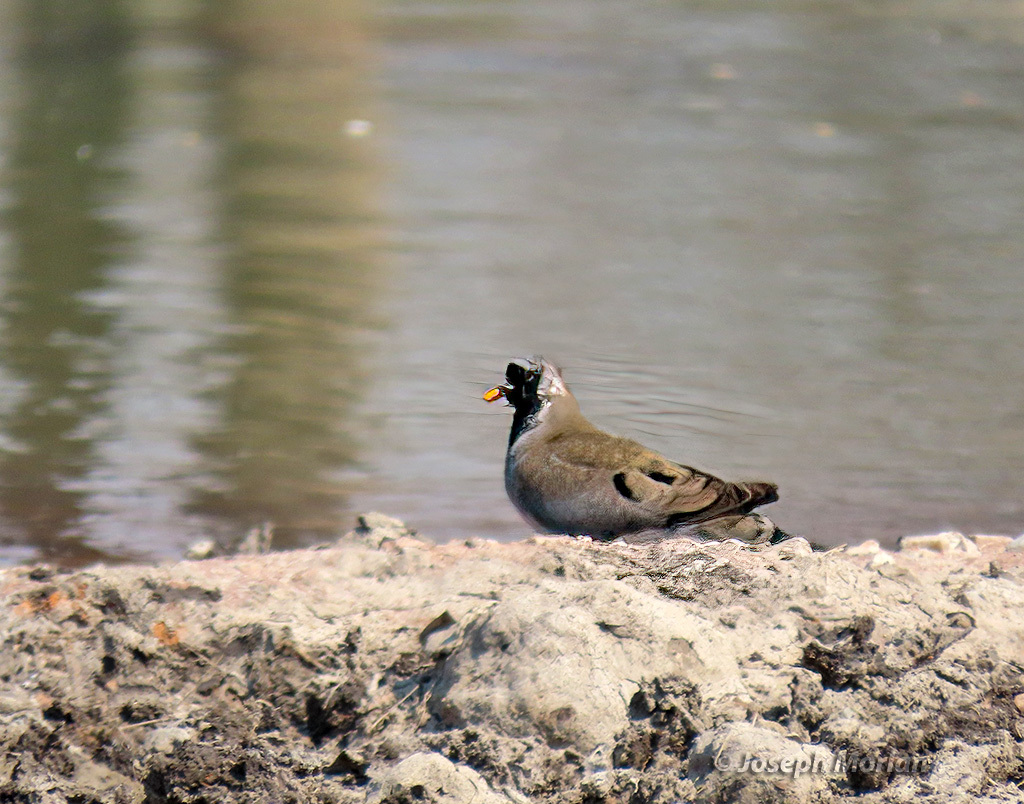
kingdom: Animalia
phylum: Chordata
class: Aves
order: Columbiformes
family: Columbidae
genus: Oena
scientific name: Oena capensis
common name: Namaqua dove
